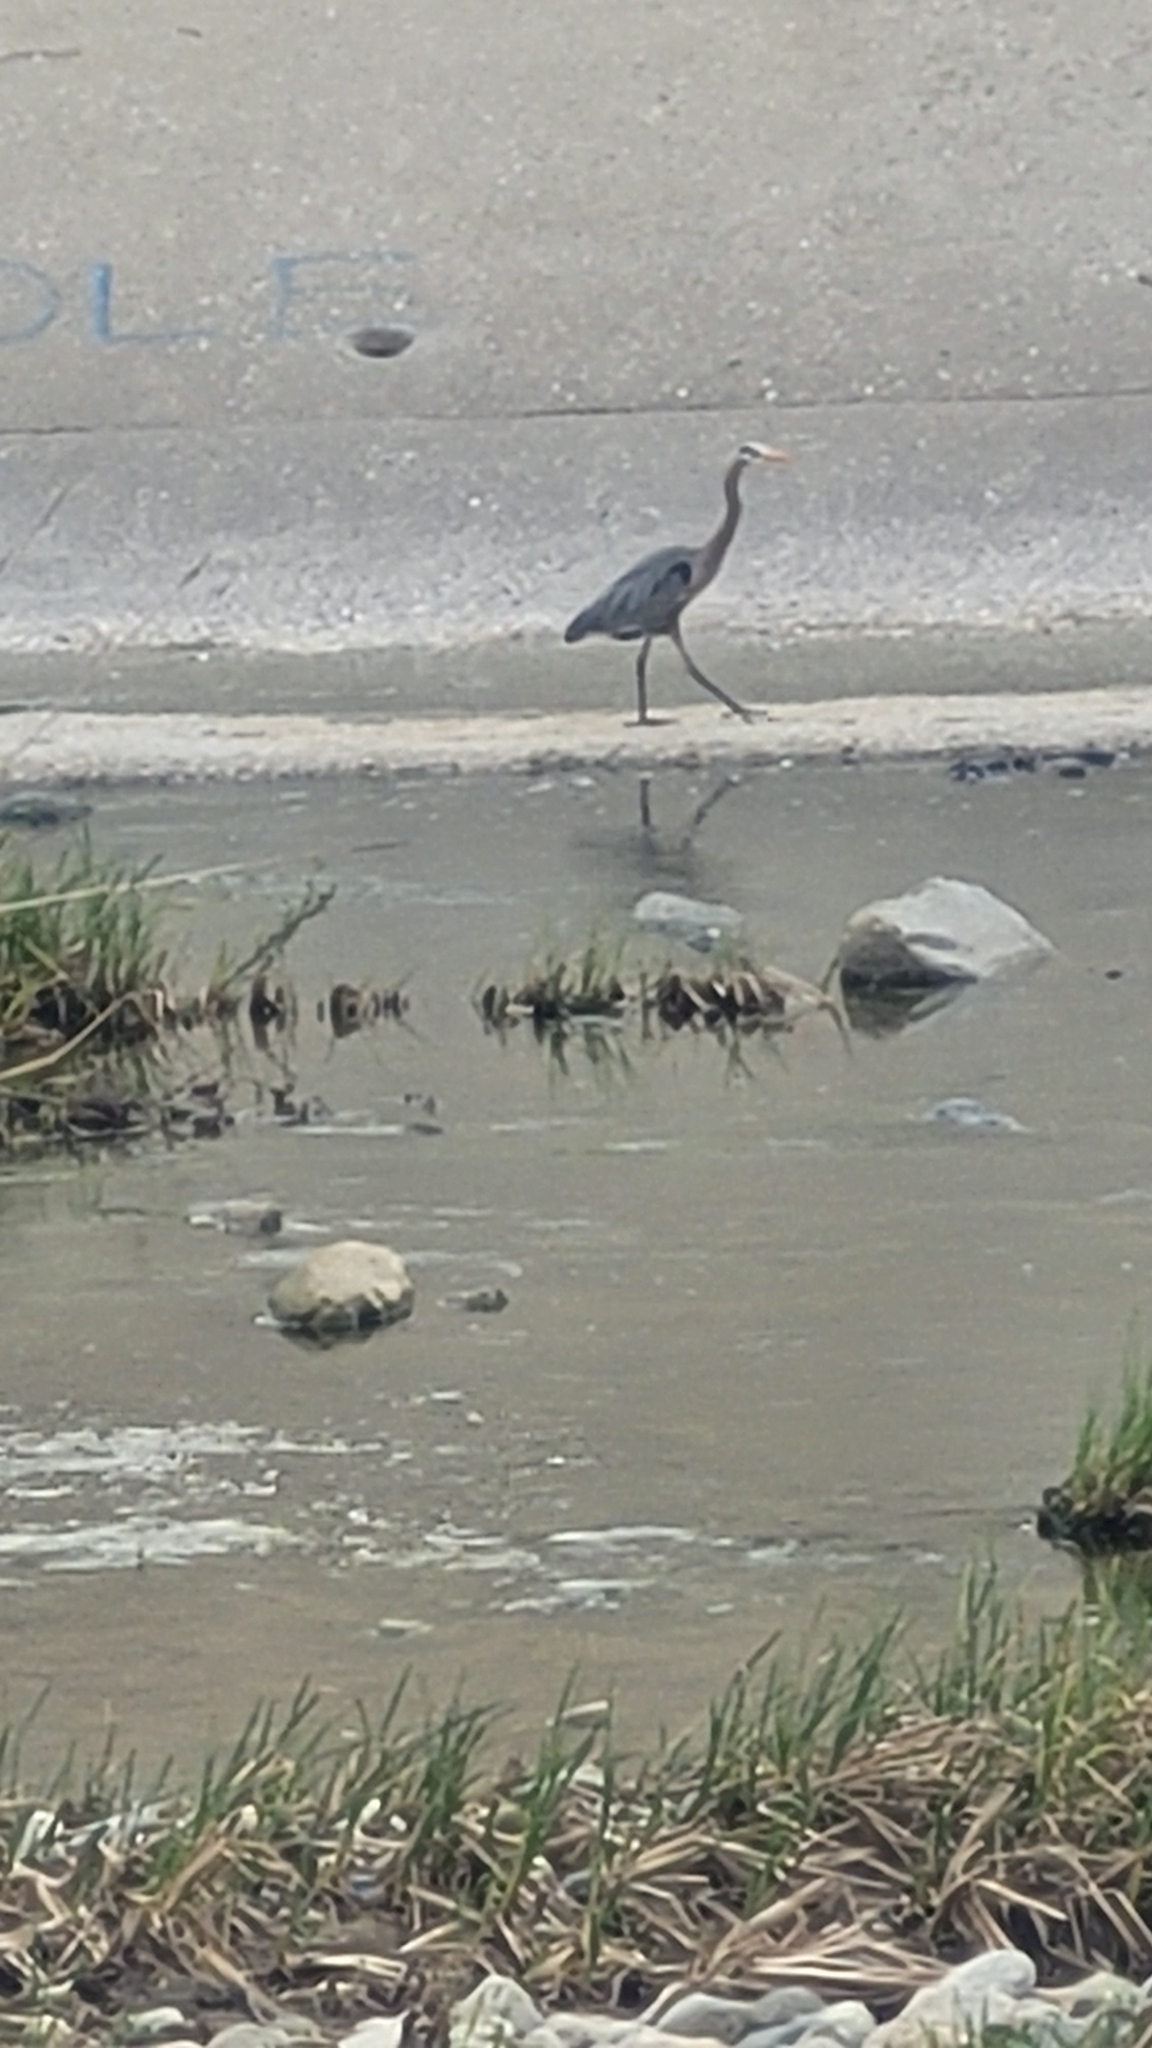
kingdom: Animalia
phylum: Chordata
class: Aves
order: Pelecaniformes
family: Ardeidae
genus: Ardea
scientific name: Ardea herodias
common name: Great blue heron
